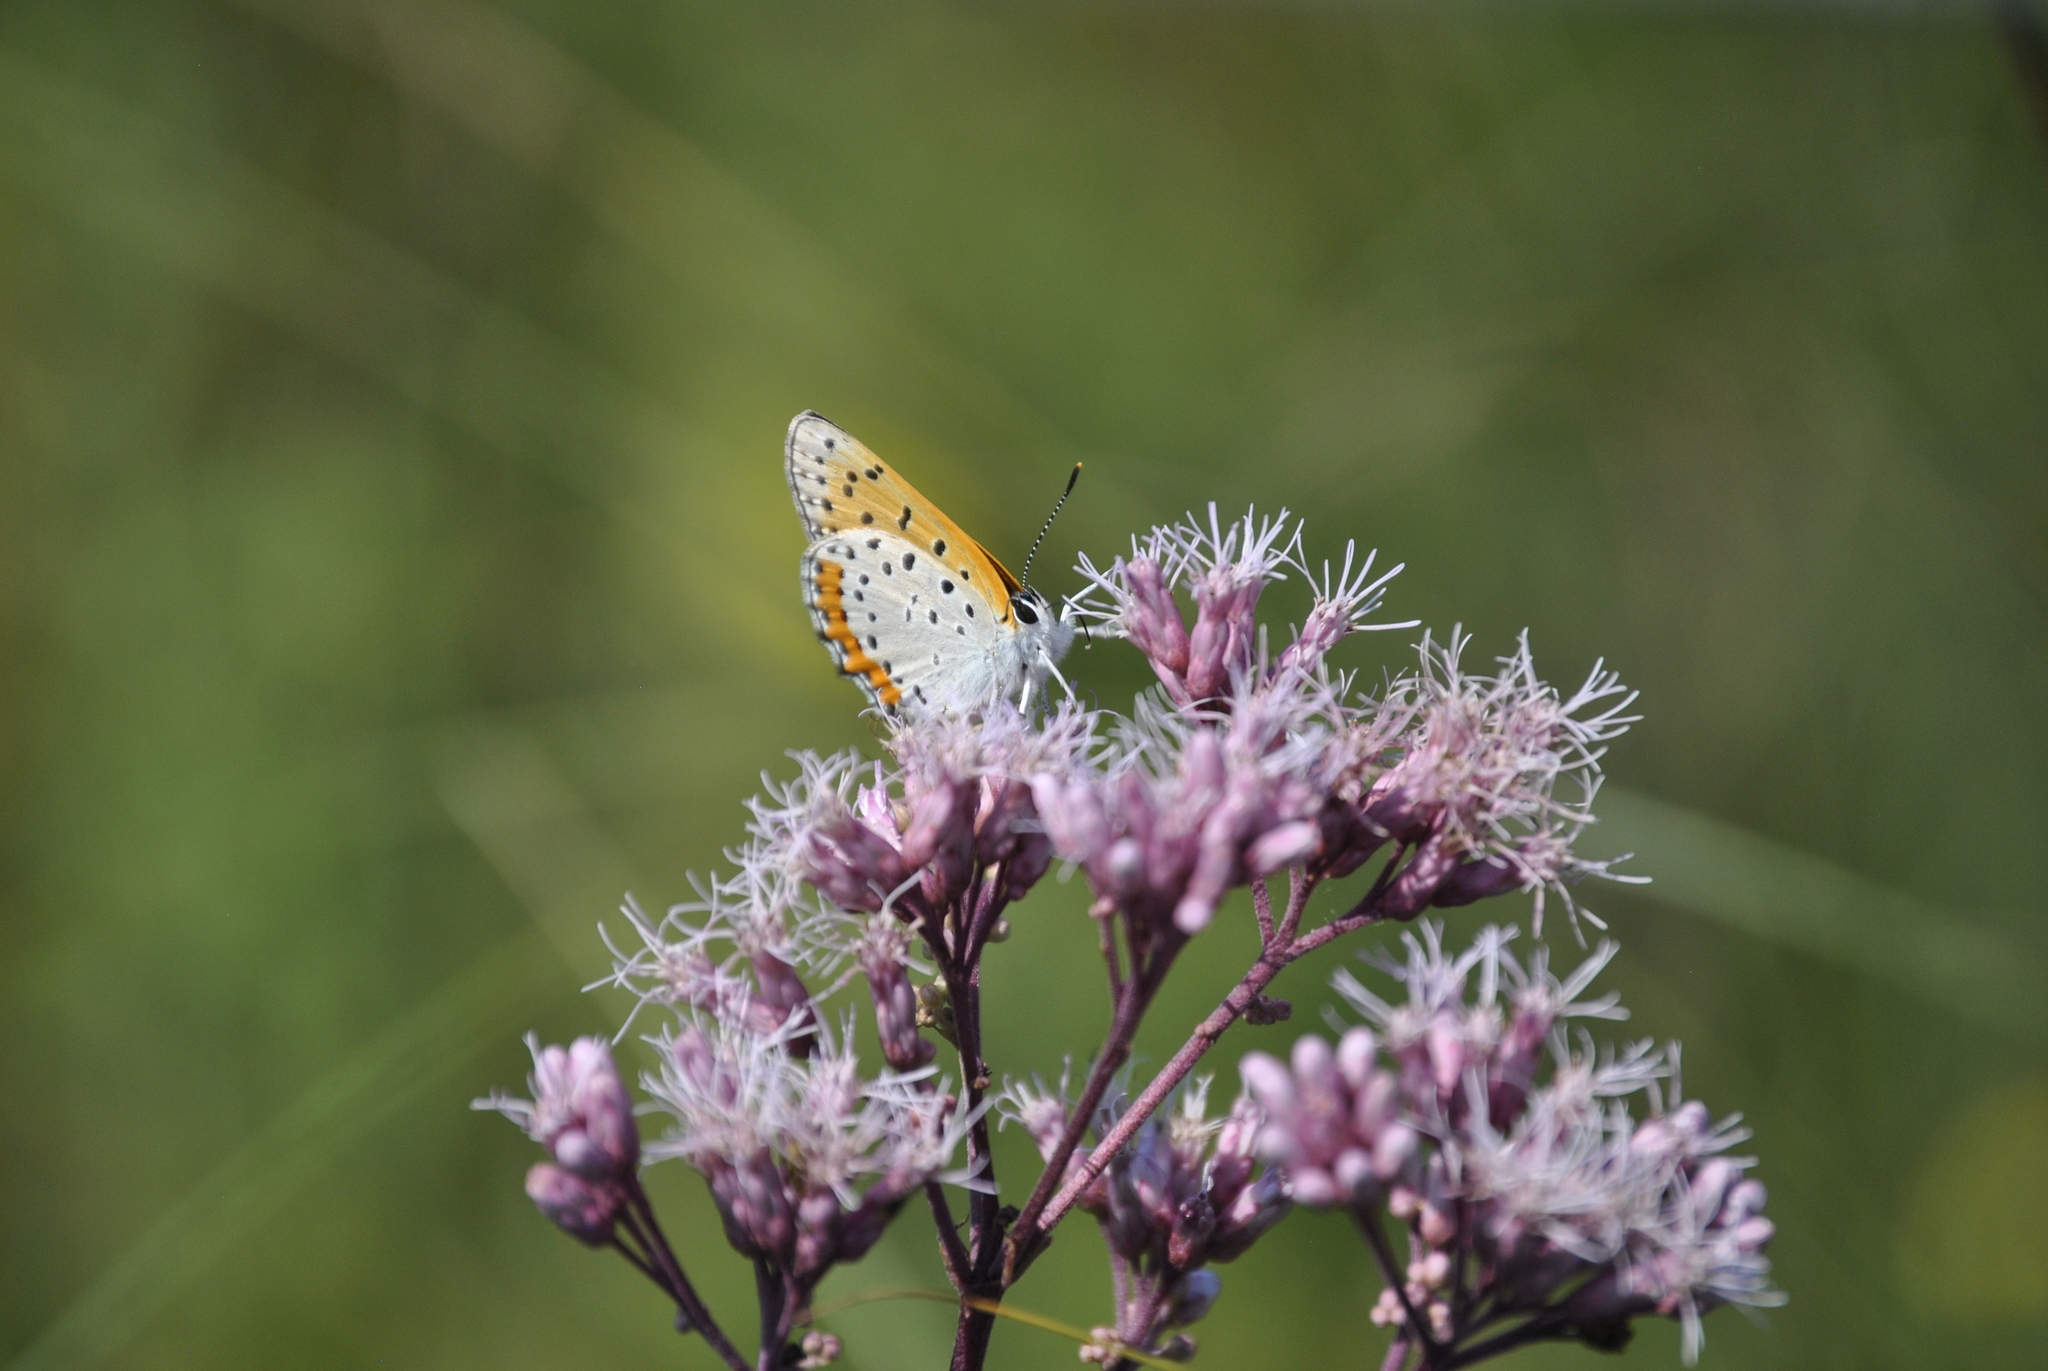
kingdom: Animalia
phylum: Arthropoda
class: Insecta
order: Lepidoptera
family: Lycaenidae
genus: Tharsalea
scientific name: Tharsalea hyllus
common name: Bronze copper
